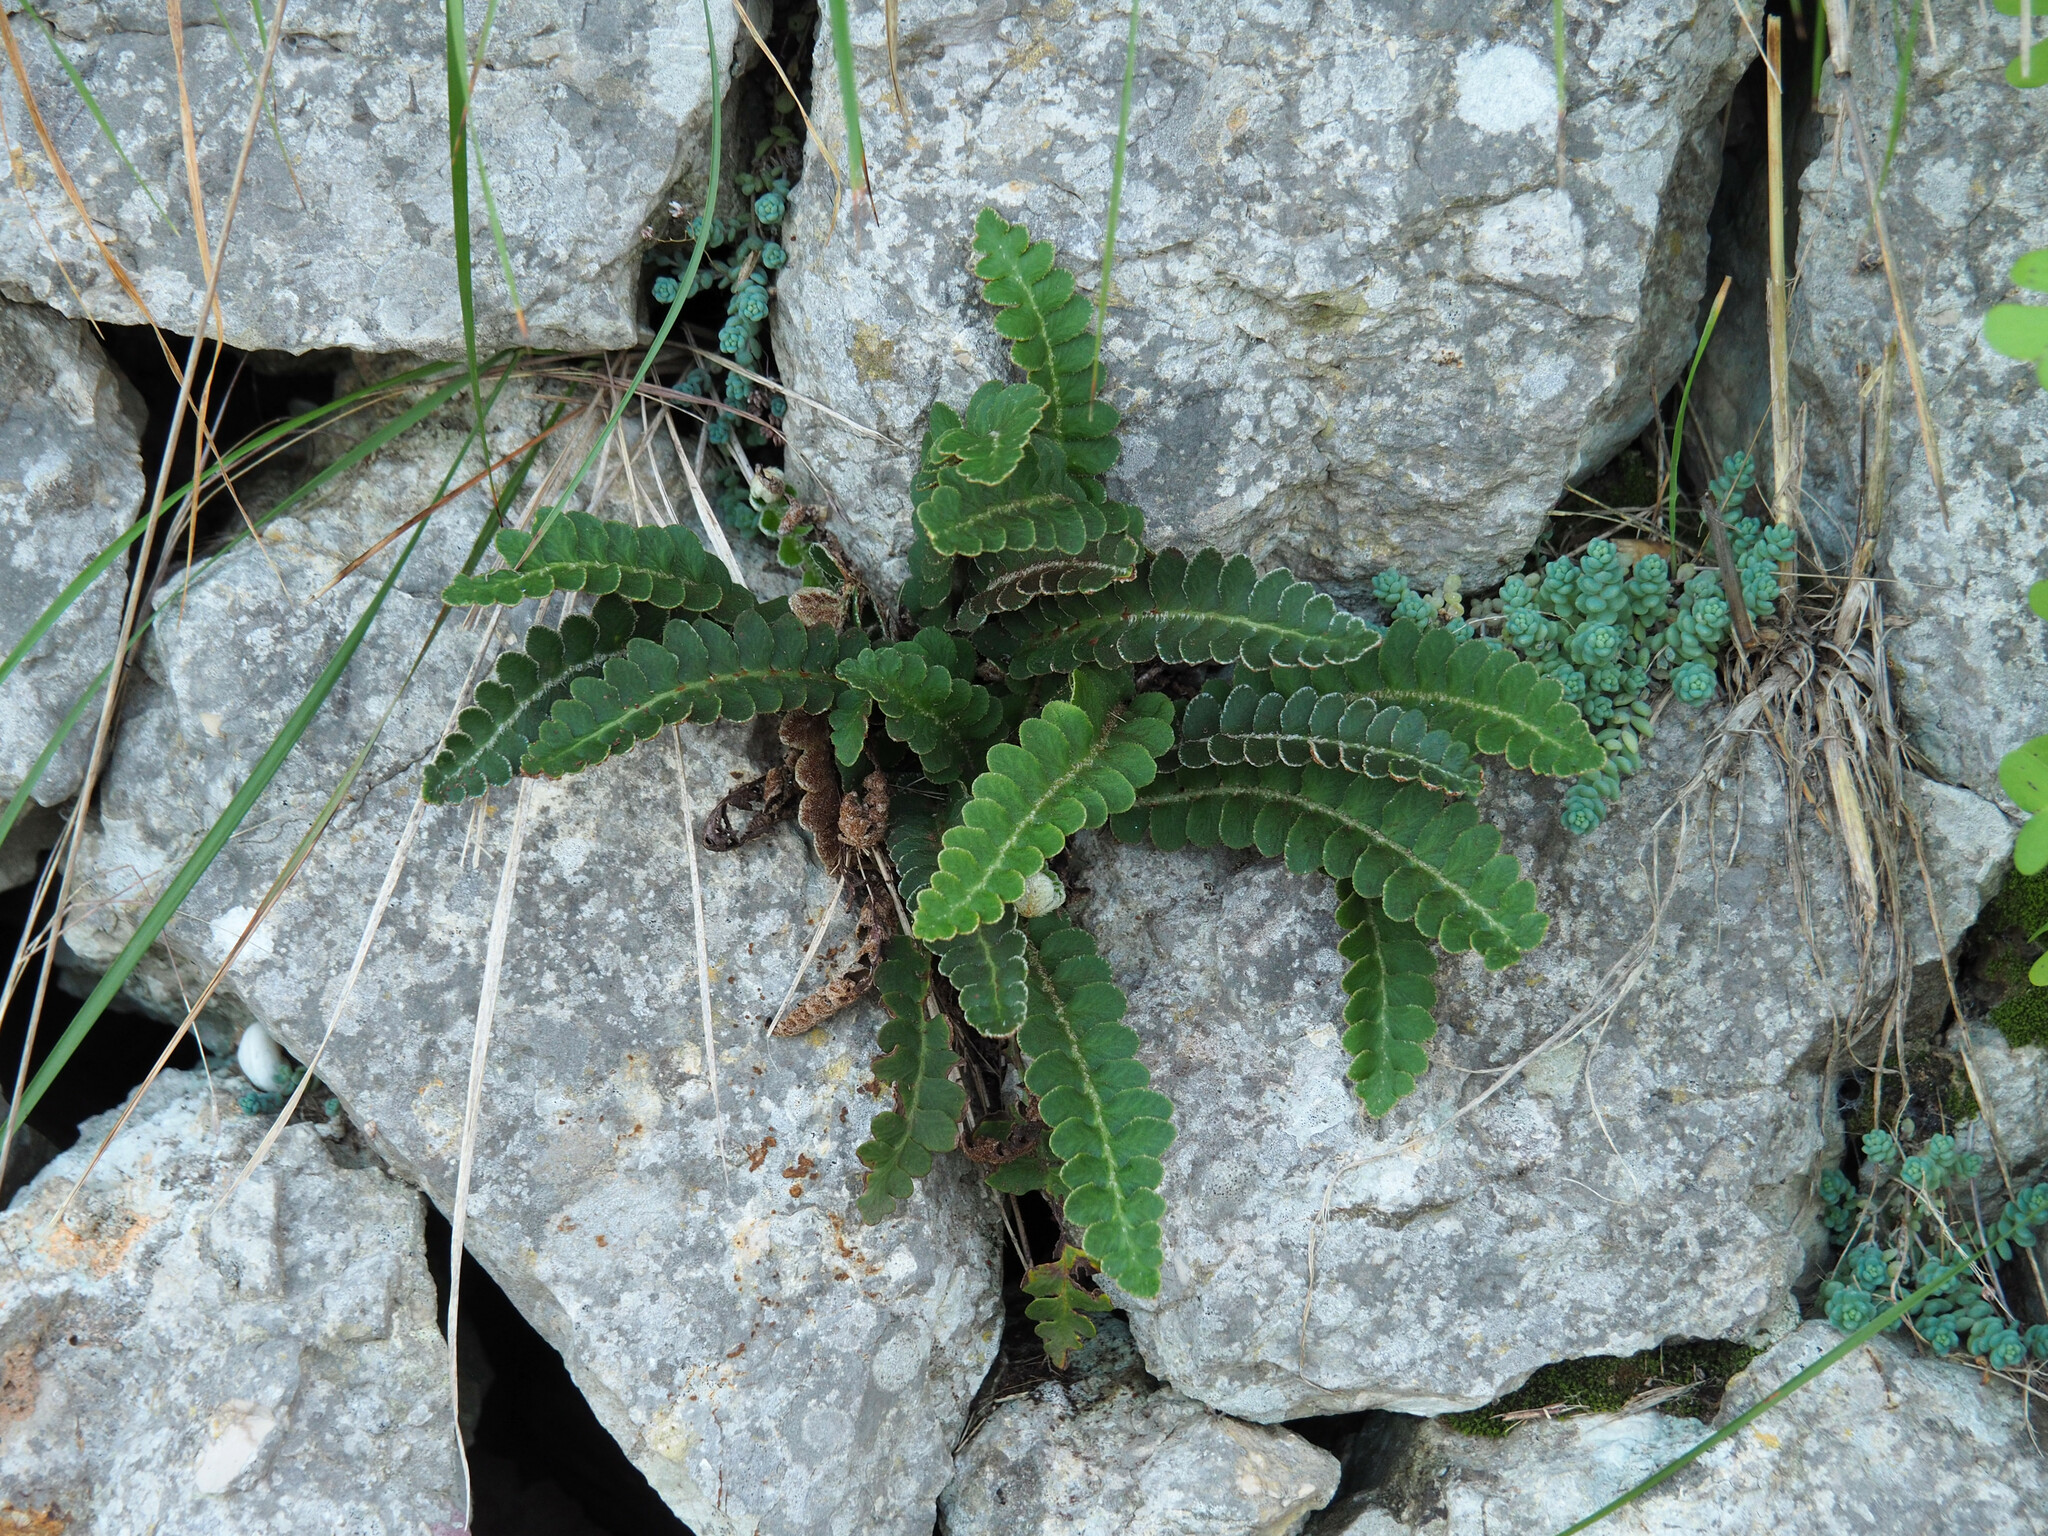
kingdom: Plantae
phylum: Tracheophyta
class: Polypodiopsida
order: Polypodiales
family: Aspleniaceae
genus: Asplenium
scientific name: Asplenium ceterach
